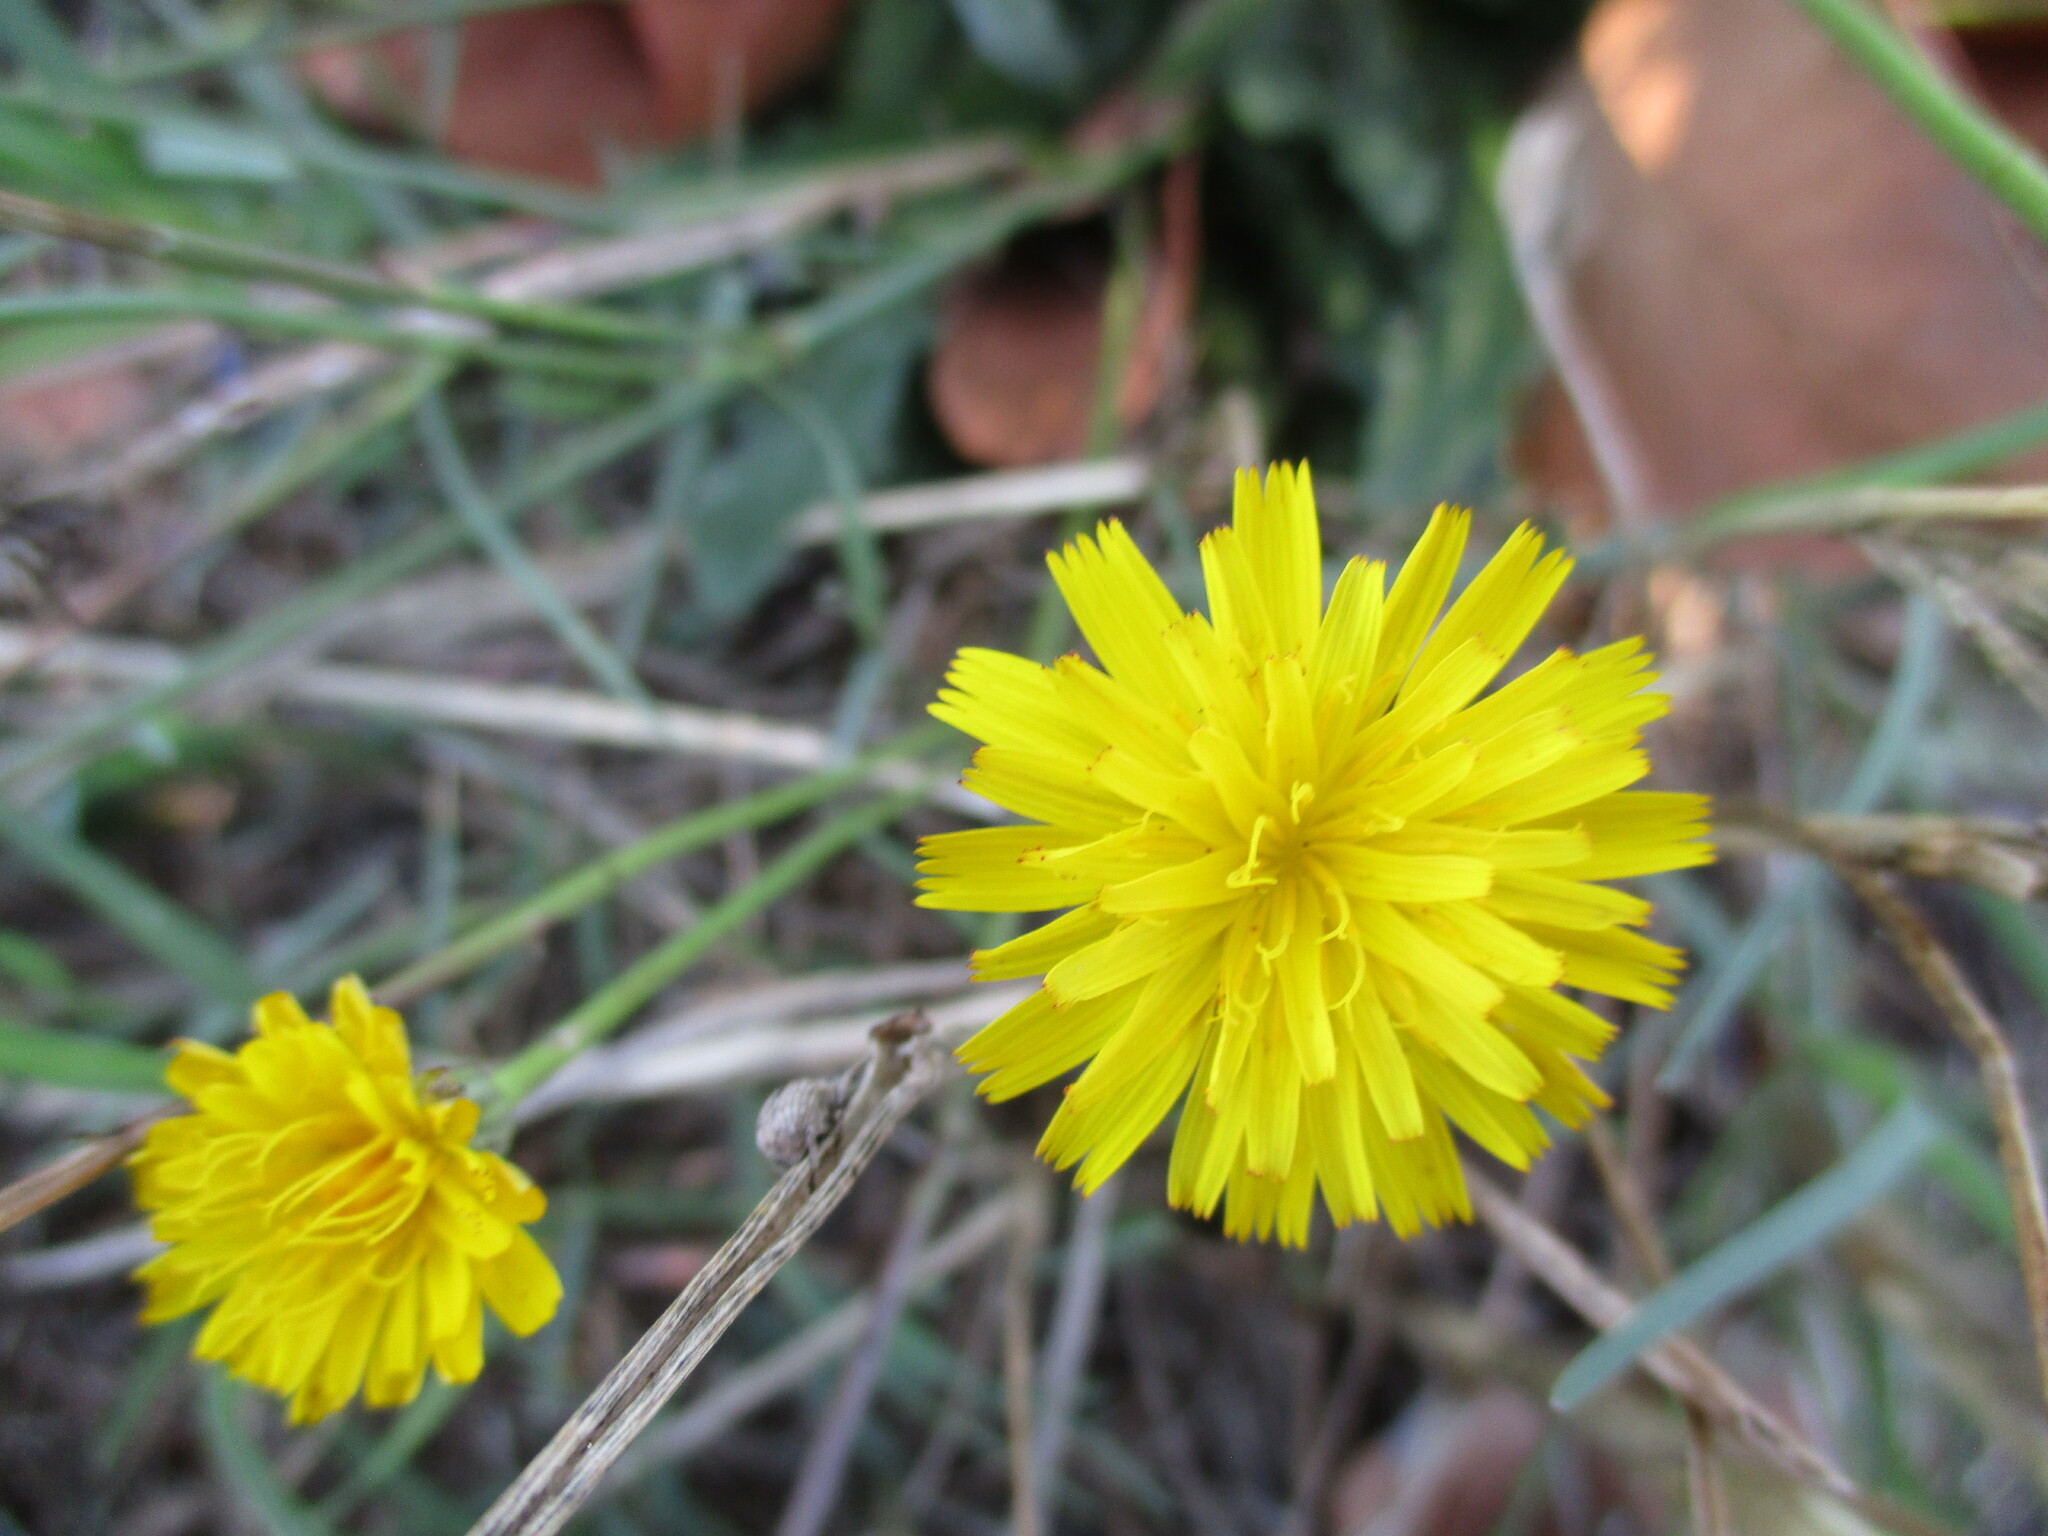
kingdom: Plantae
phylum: Tracheophyta
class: Magnoliopsida
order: Asterales
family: Asteraceae
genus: Hypochaeris
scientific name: Hypochaeris radicata
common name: Flatweed
